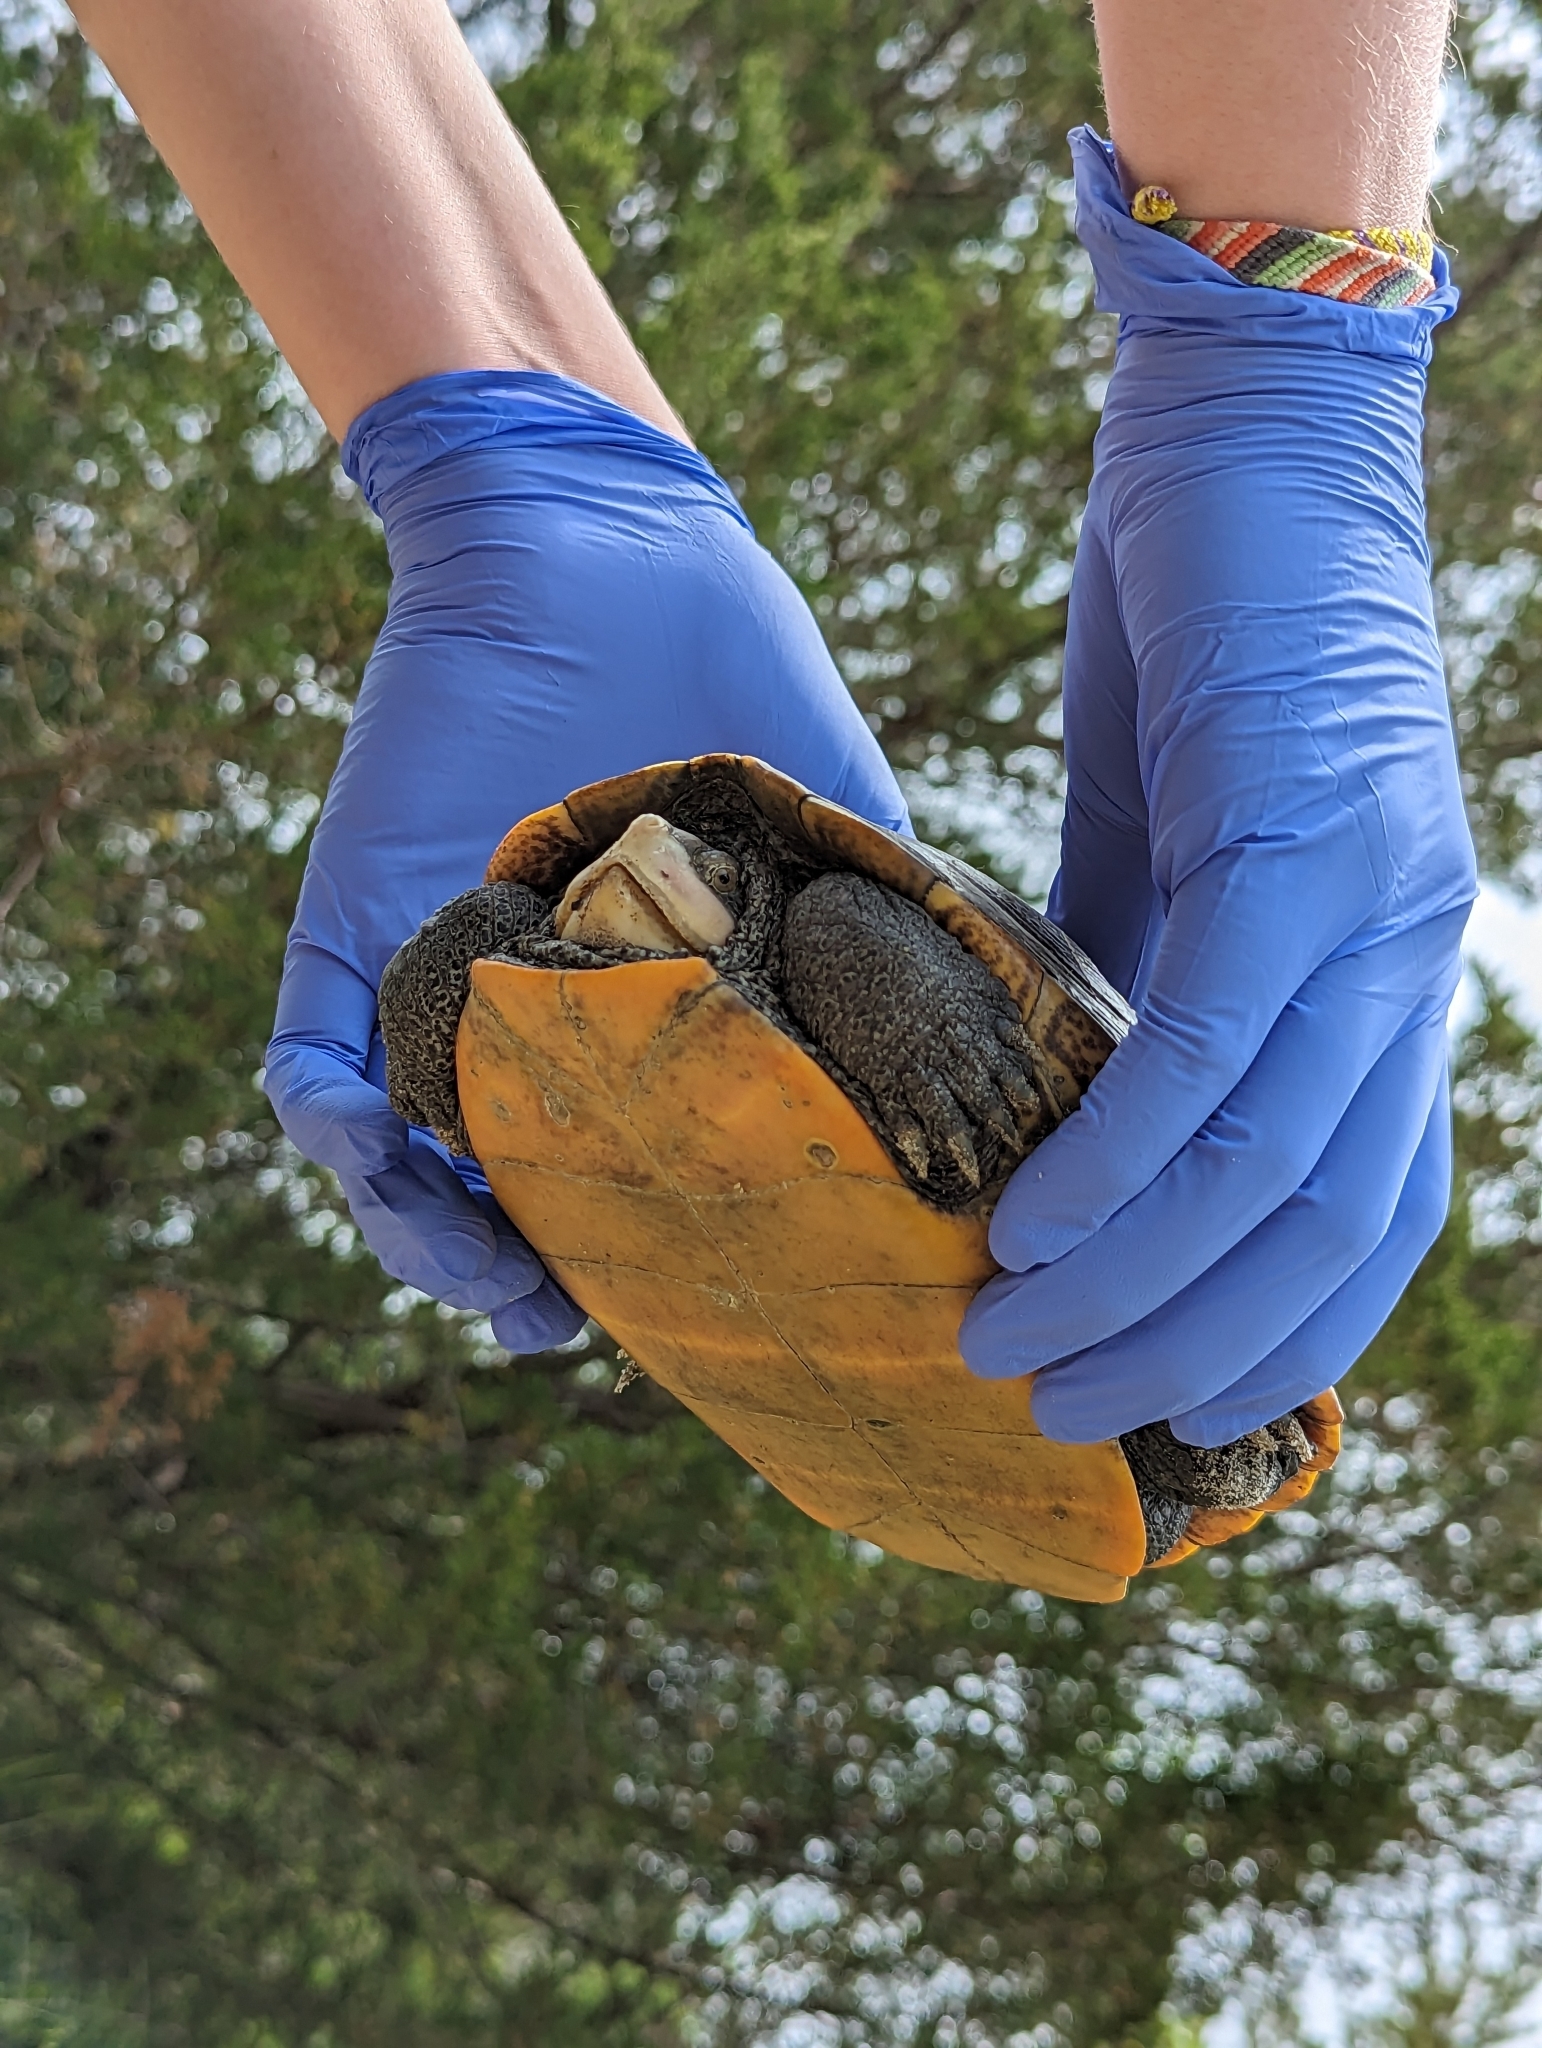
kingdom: Animalia
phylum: Chordata
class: Testudines
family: Emydidae
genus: Malaclemys
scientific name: Malaclemys terrapin
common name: Diamondback terrapin
